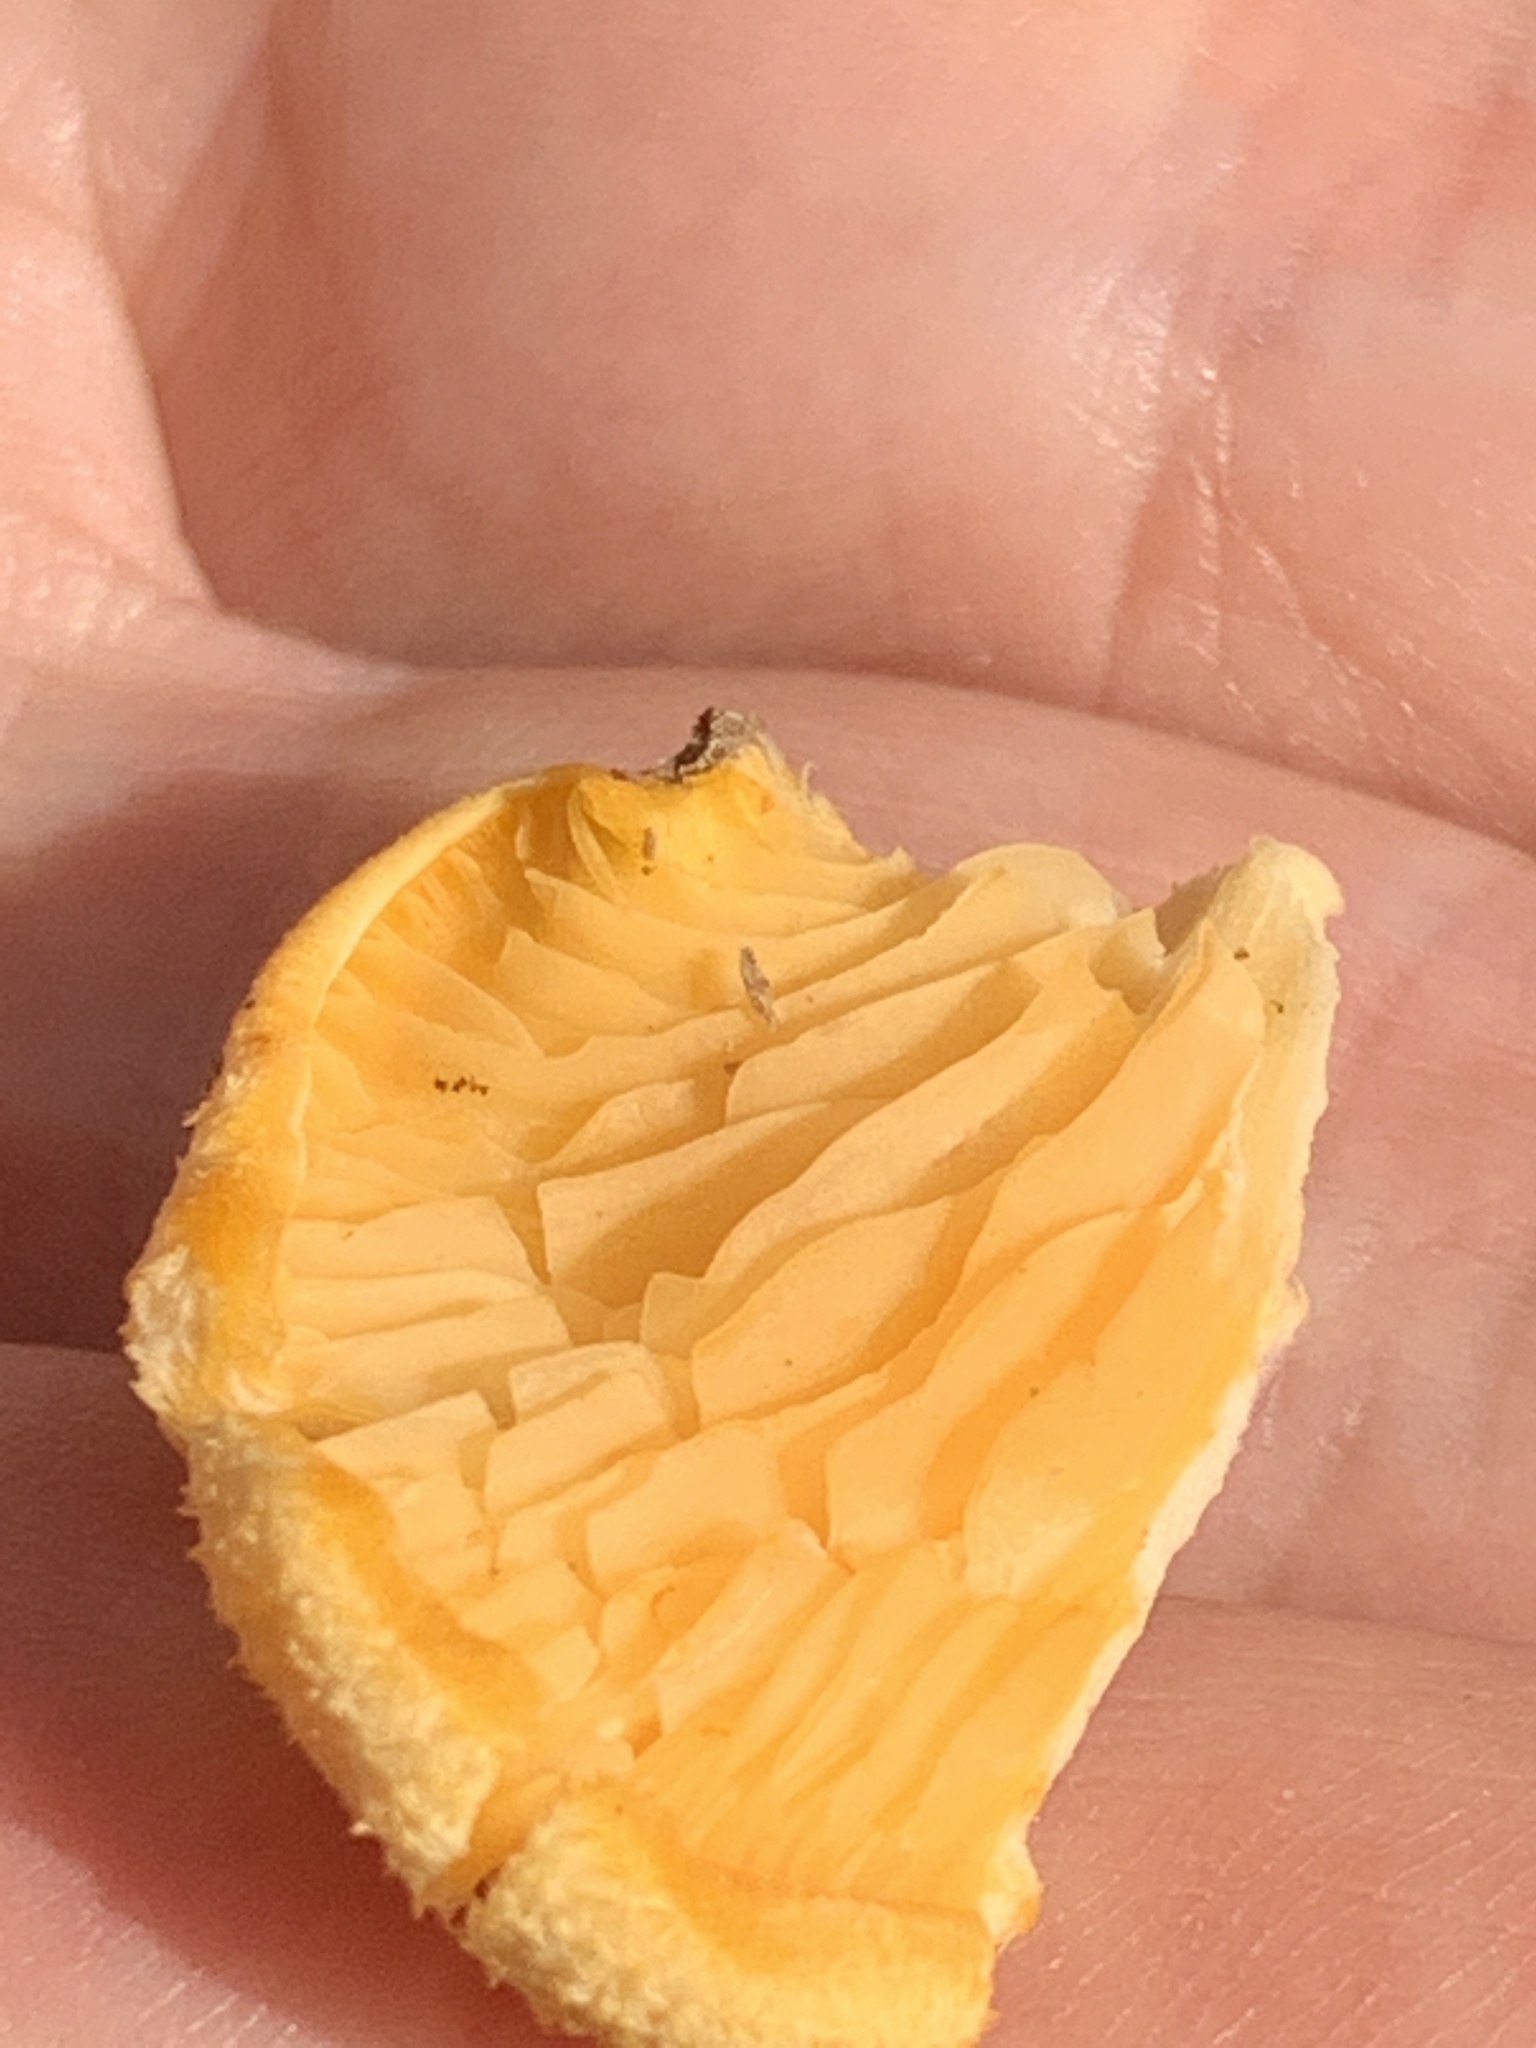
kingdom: Fungi
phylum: Basidiomycota
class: Agaricomycetes
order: Agaricales
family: Phyllotopsidaceae
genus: Phyllotopsis
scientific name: Phyllotopsis nidulans
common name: Orange mock oyster
